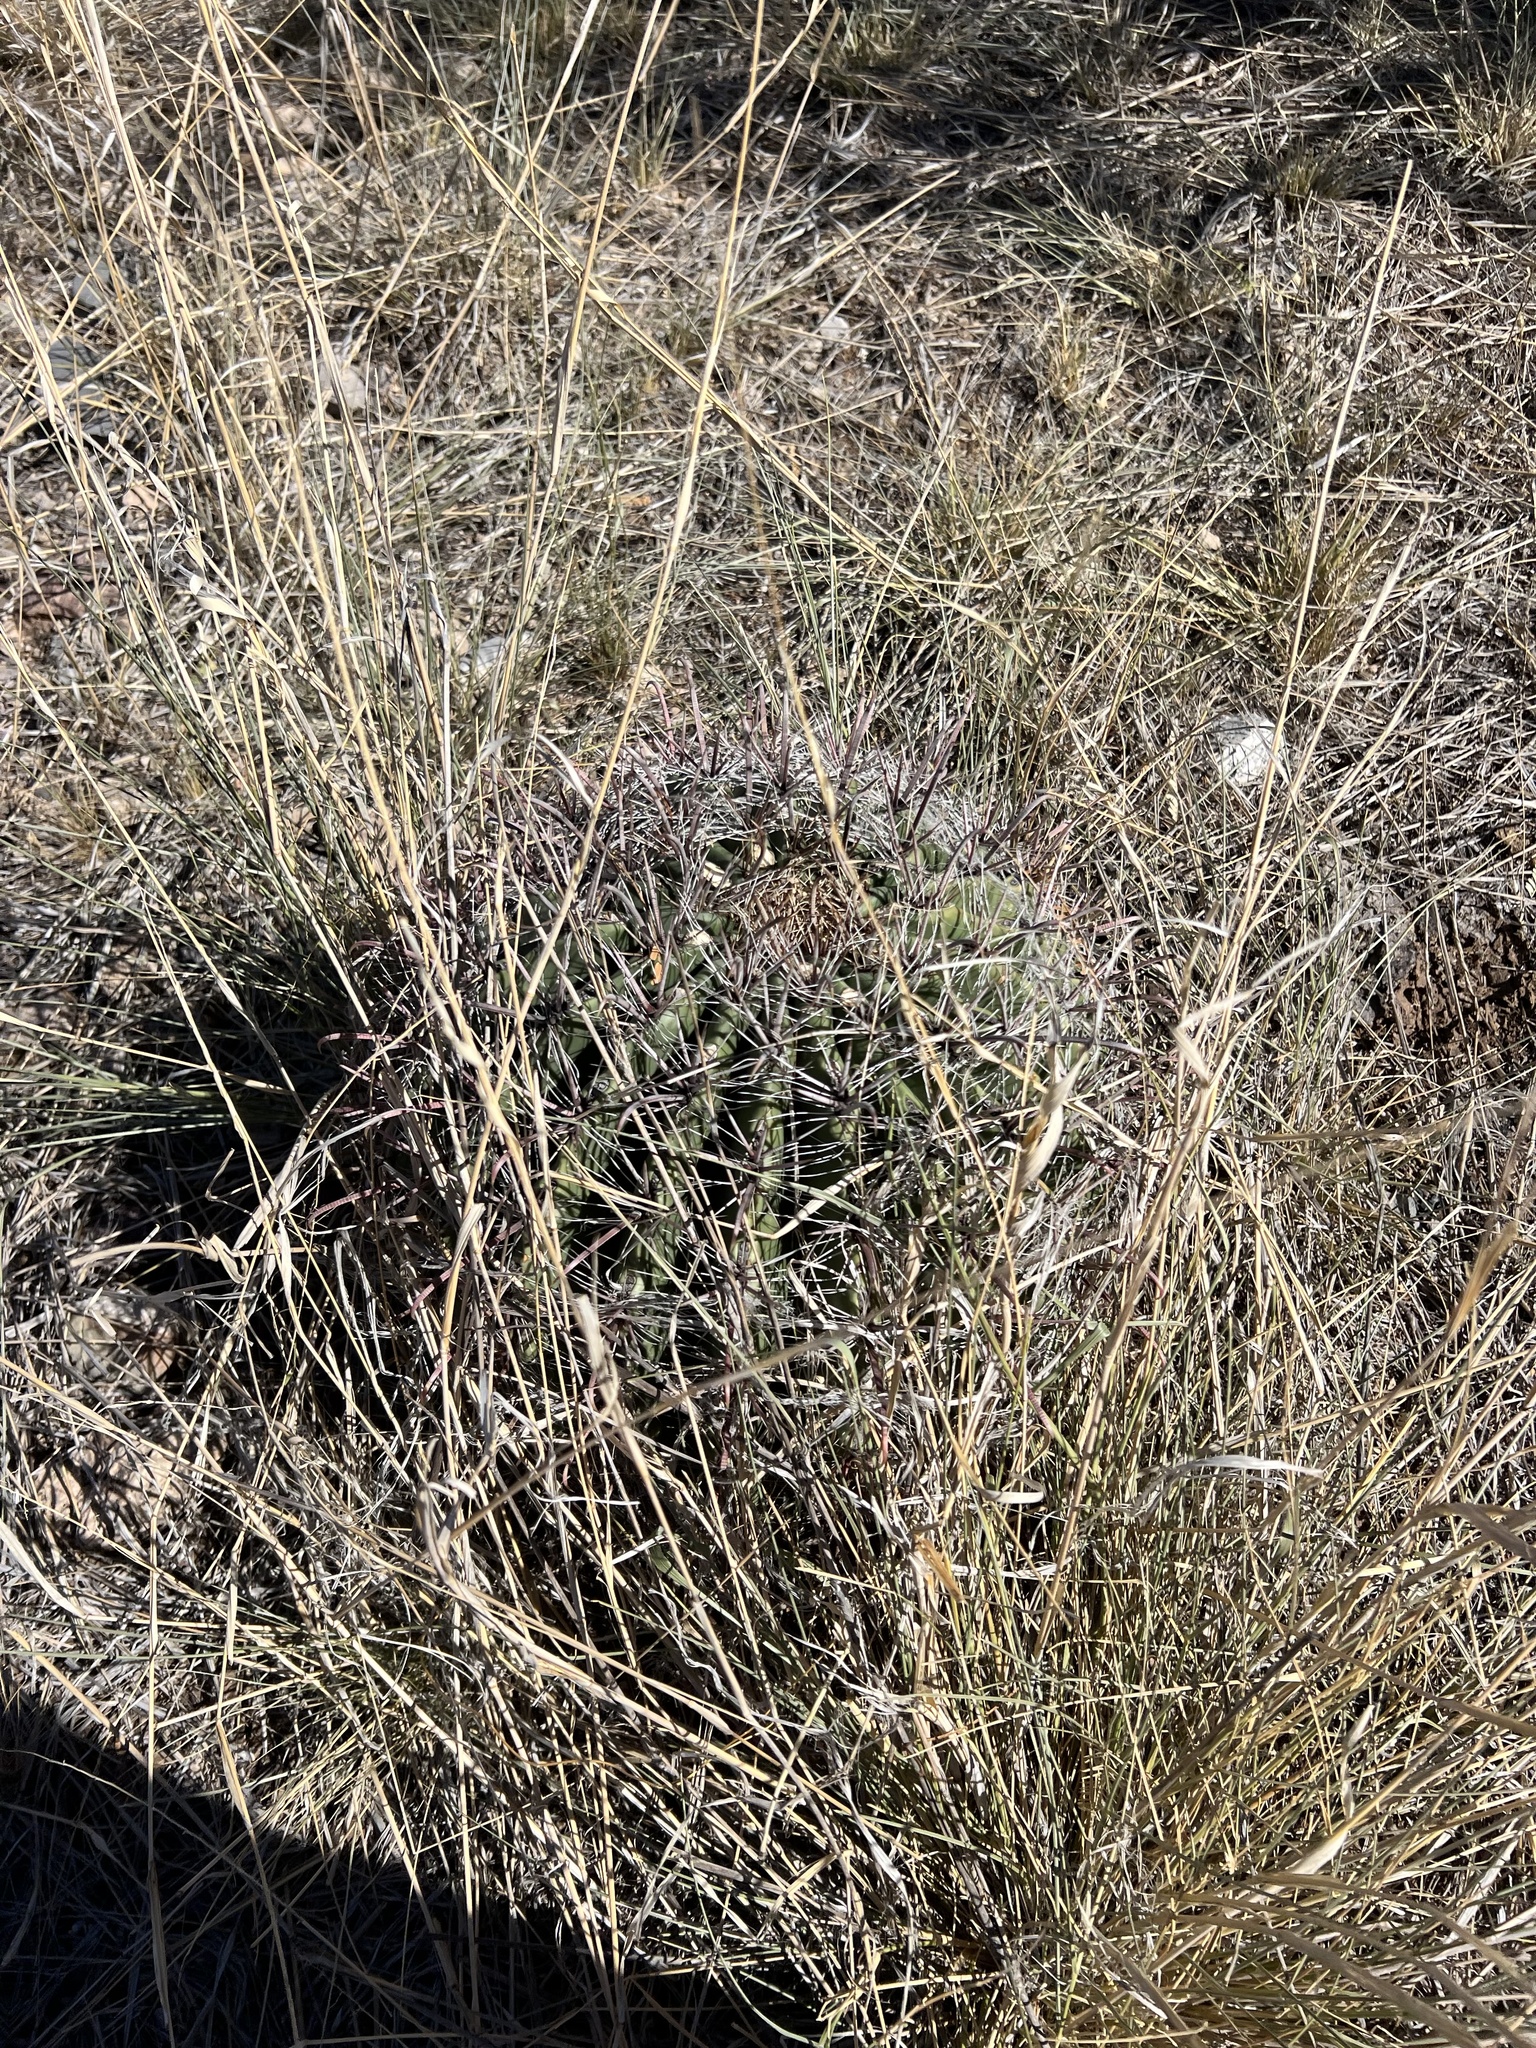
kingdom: Plantae
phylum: Tracheophyta
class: Magnoliopsida
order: Caryophyllales
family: Cactaceae
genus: Ferocactus
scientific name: Ferocactus wislizeni
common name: Candy barrel cactus
